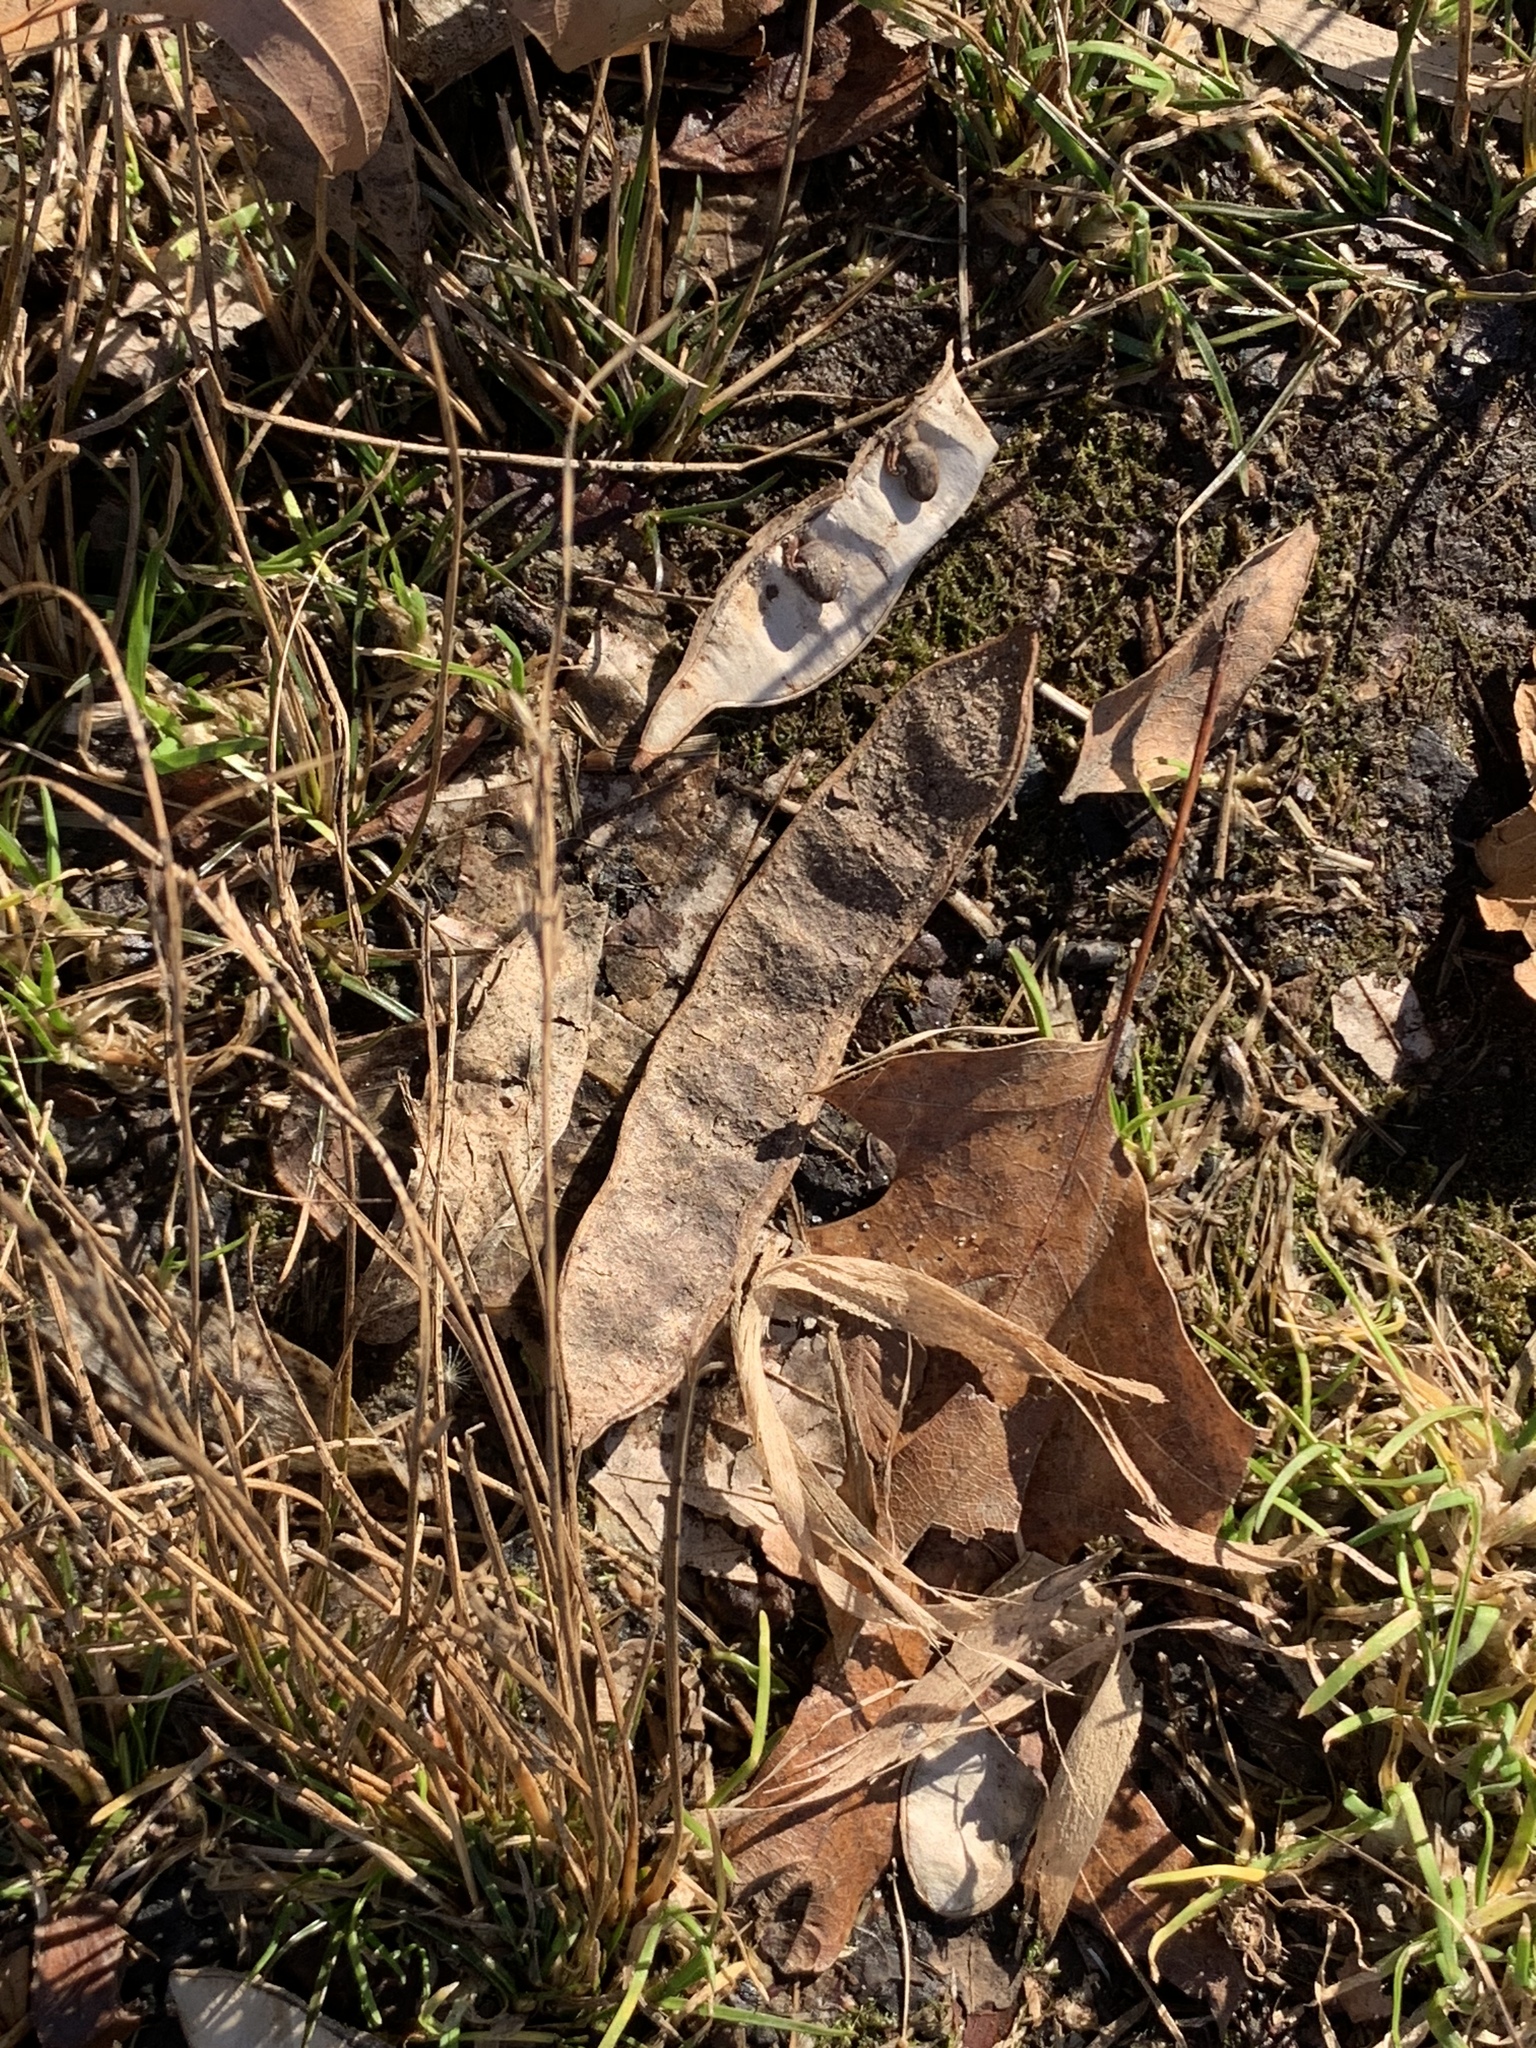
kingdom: Plantae
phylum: Tracheophyta
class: Magnoliopsida
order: Fabales
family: Fabaceae
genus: Robinia
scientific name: Robinia pseudoacacia
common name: Black locust
